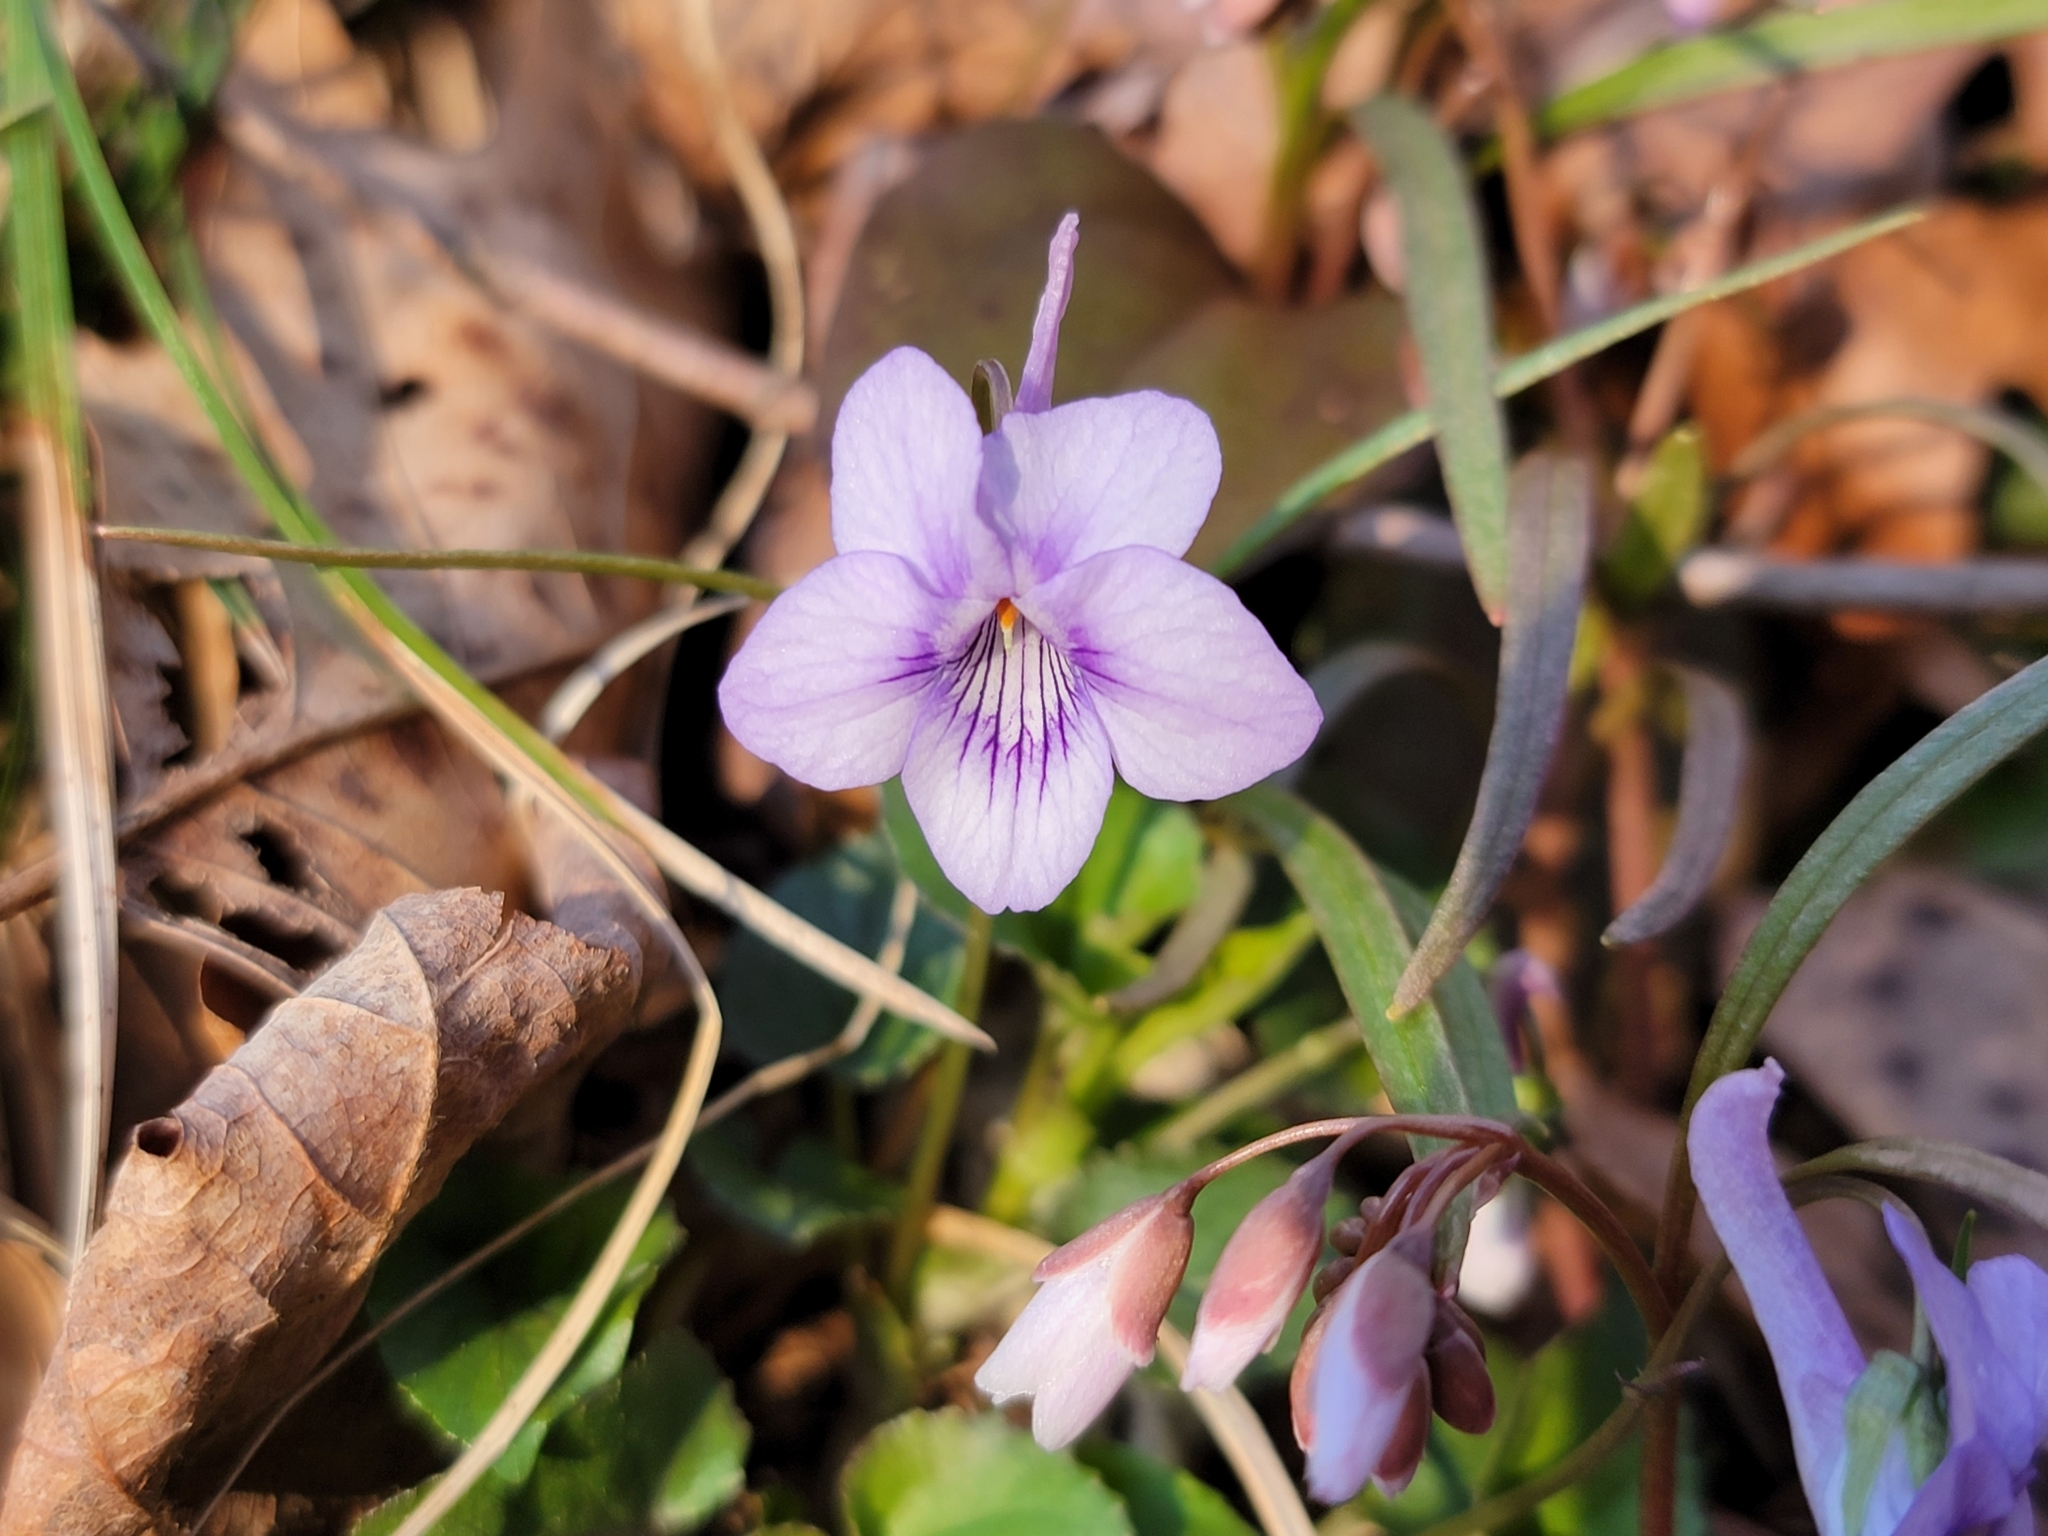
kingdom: Plantae
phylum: Tracheophyta
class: Magnoliopsida
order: Malpighiales
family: Violaceae
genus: Viola
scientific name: Viola rostrata
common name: Long-spur violet
